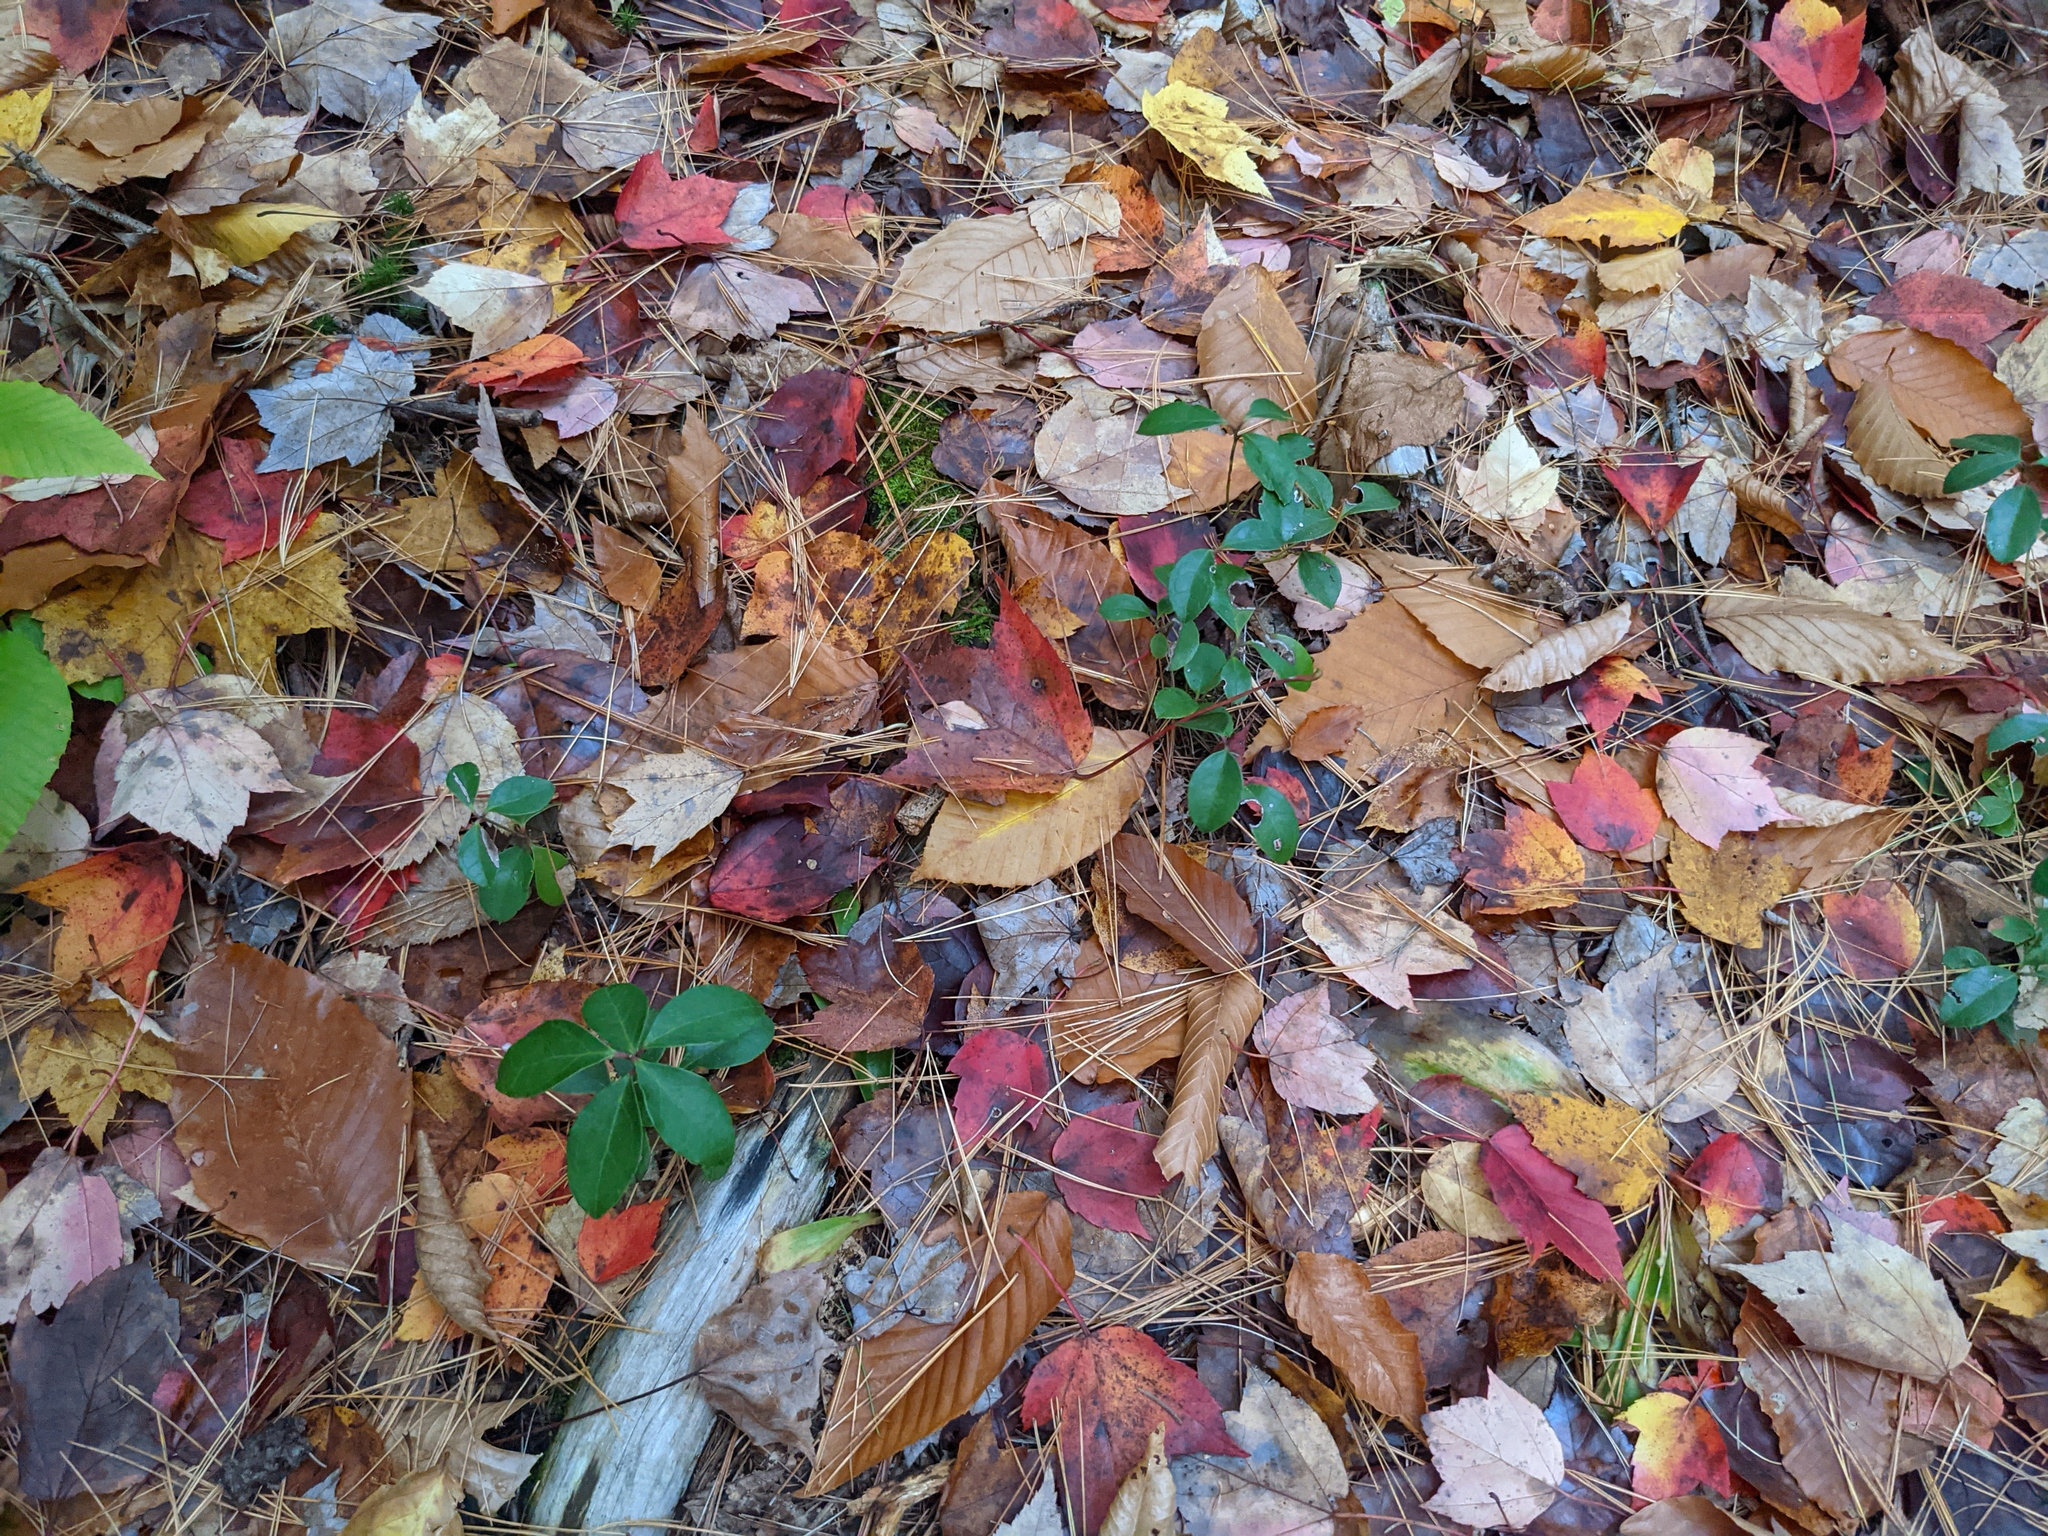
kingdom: Plantae
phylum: Tracheophyta
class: Magnoliopsida
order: Ericales
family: Ericaceae
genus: Gaultheria
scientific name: Gaultheria procumbens
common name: Checkerberry
